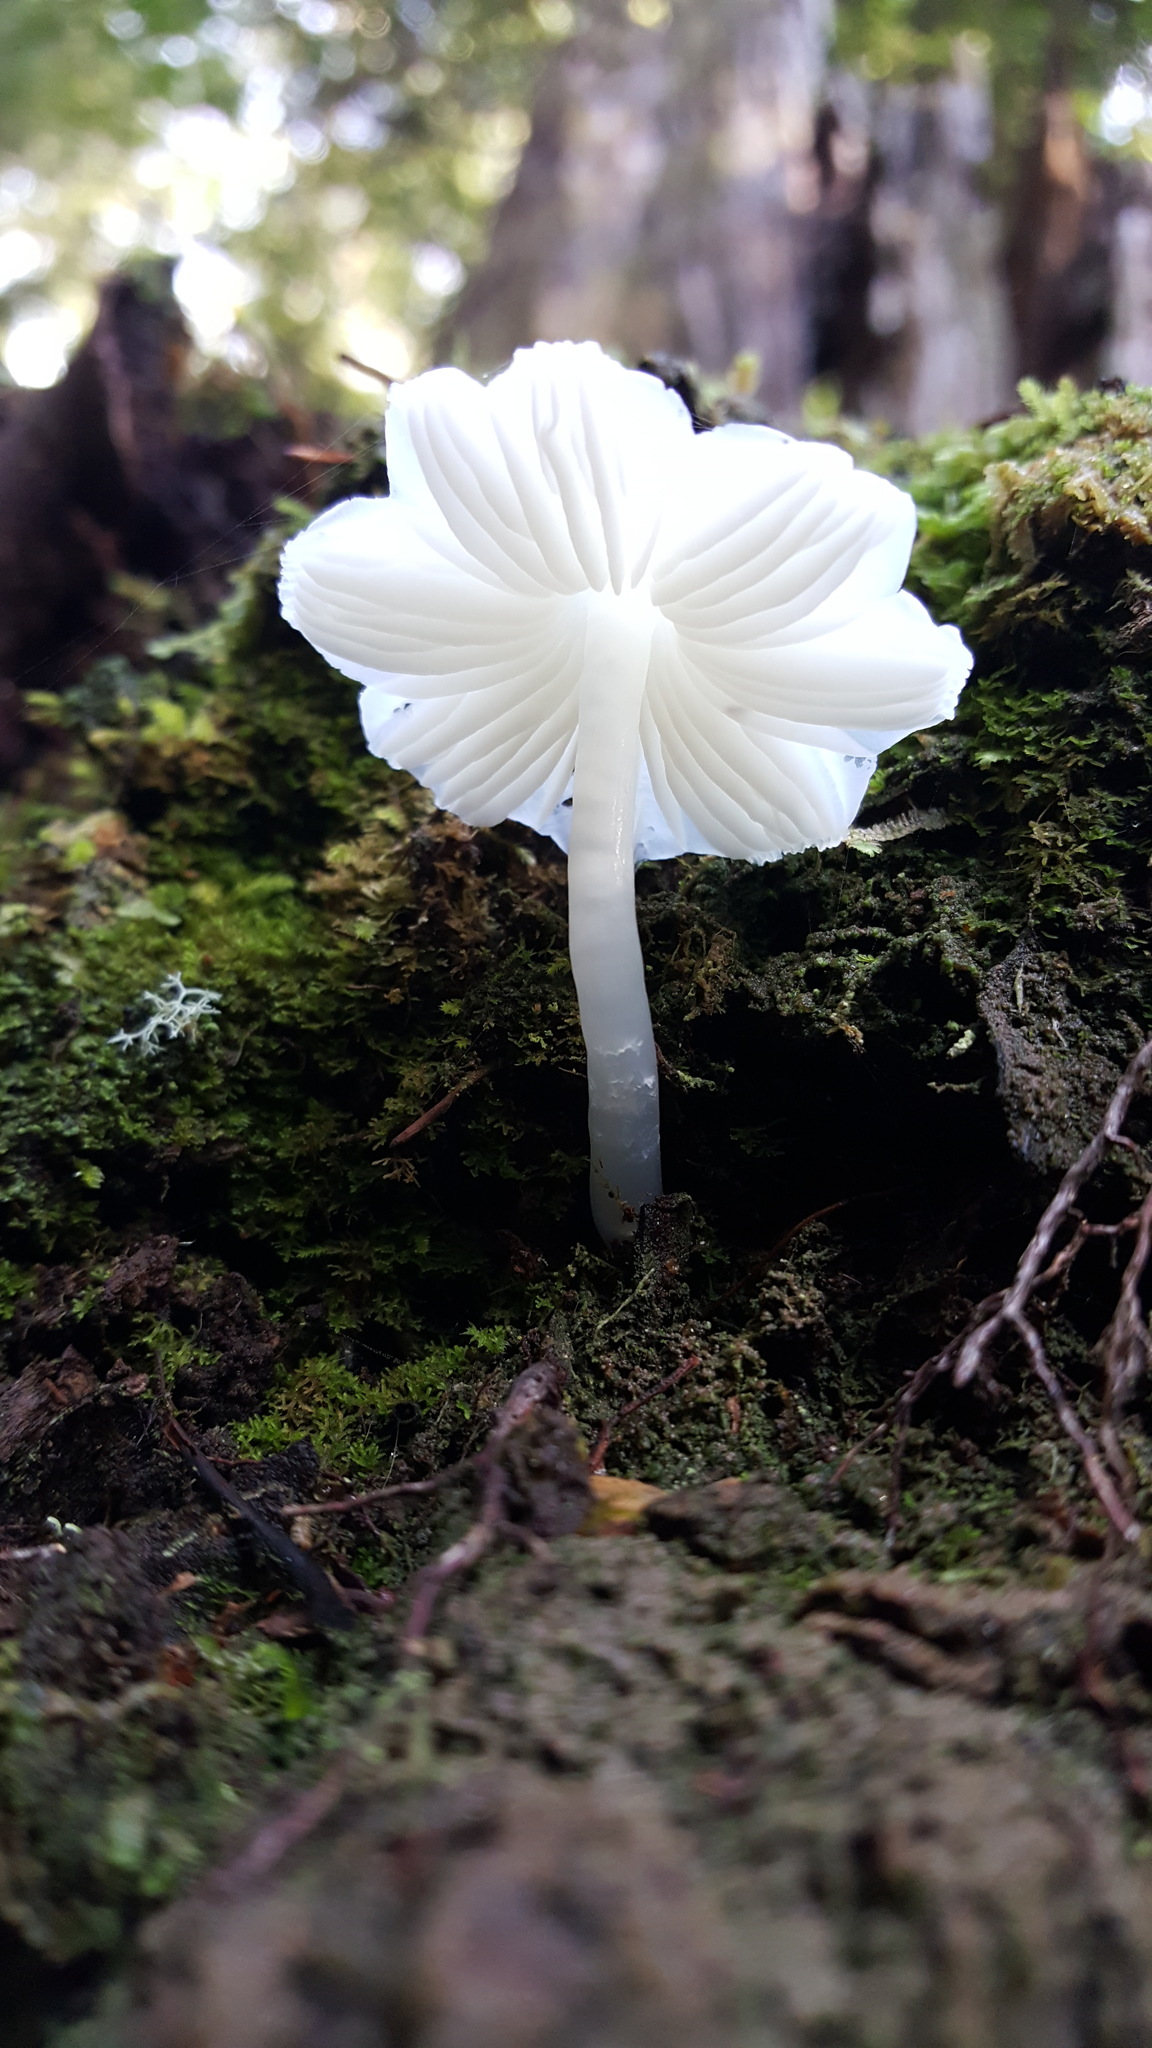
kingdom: Fungi
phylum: Basidiomycota
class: Agaricomycetes
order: Agaricales
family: Hygrophoraceae
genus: Humidicutis
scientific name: Humidicutis mavis
